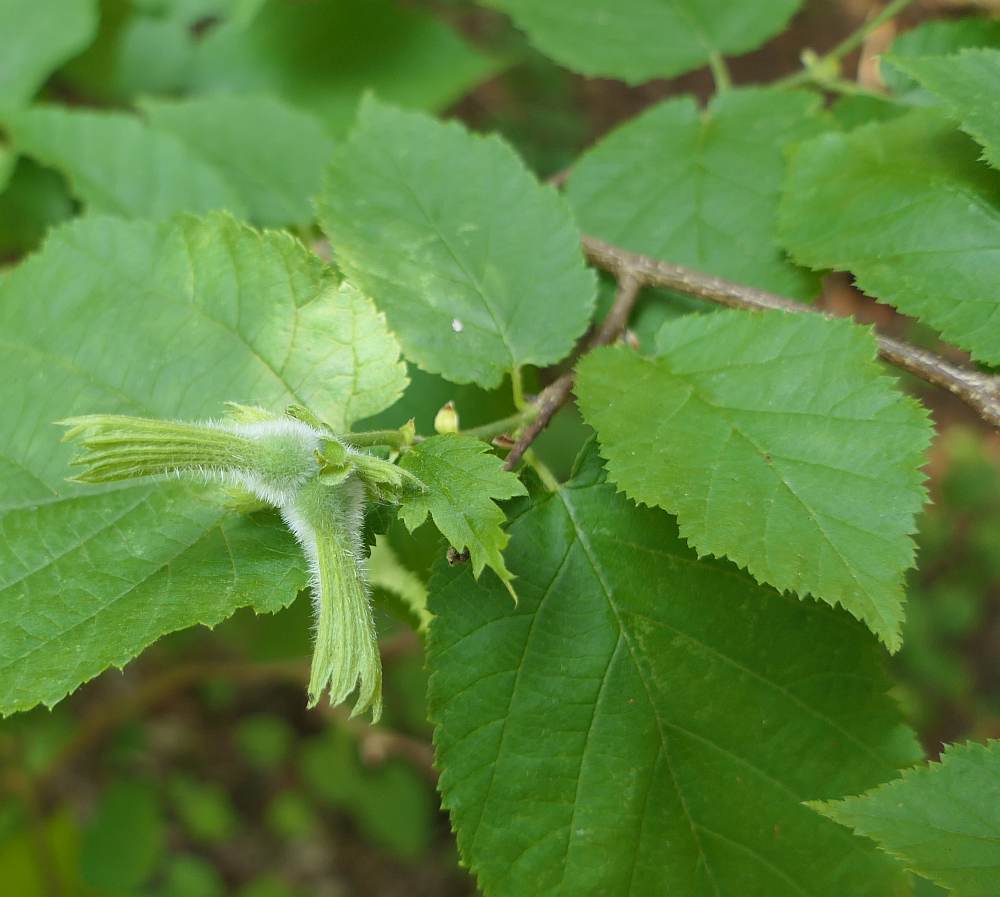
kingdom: Plantae
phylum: Tracheophyta
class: Magnoliopsida
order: Fagales
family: Betulaceae
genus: Corylus
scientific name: Corylus cornuta
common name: Beaked hazel
